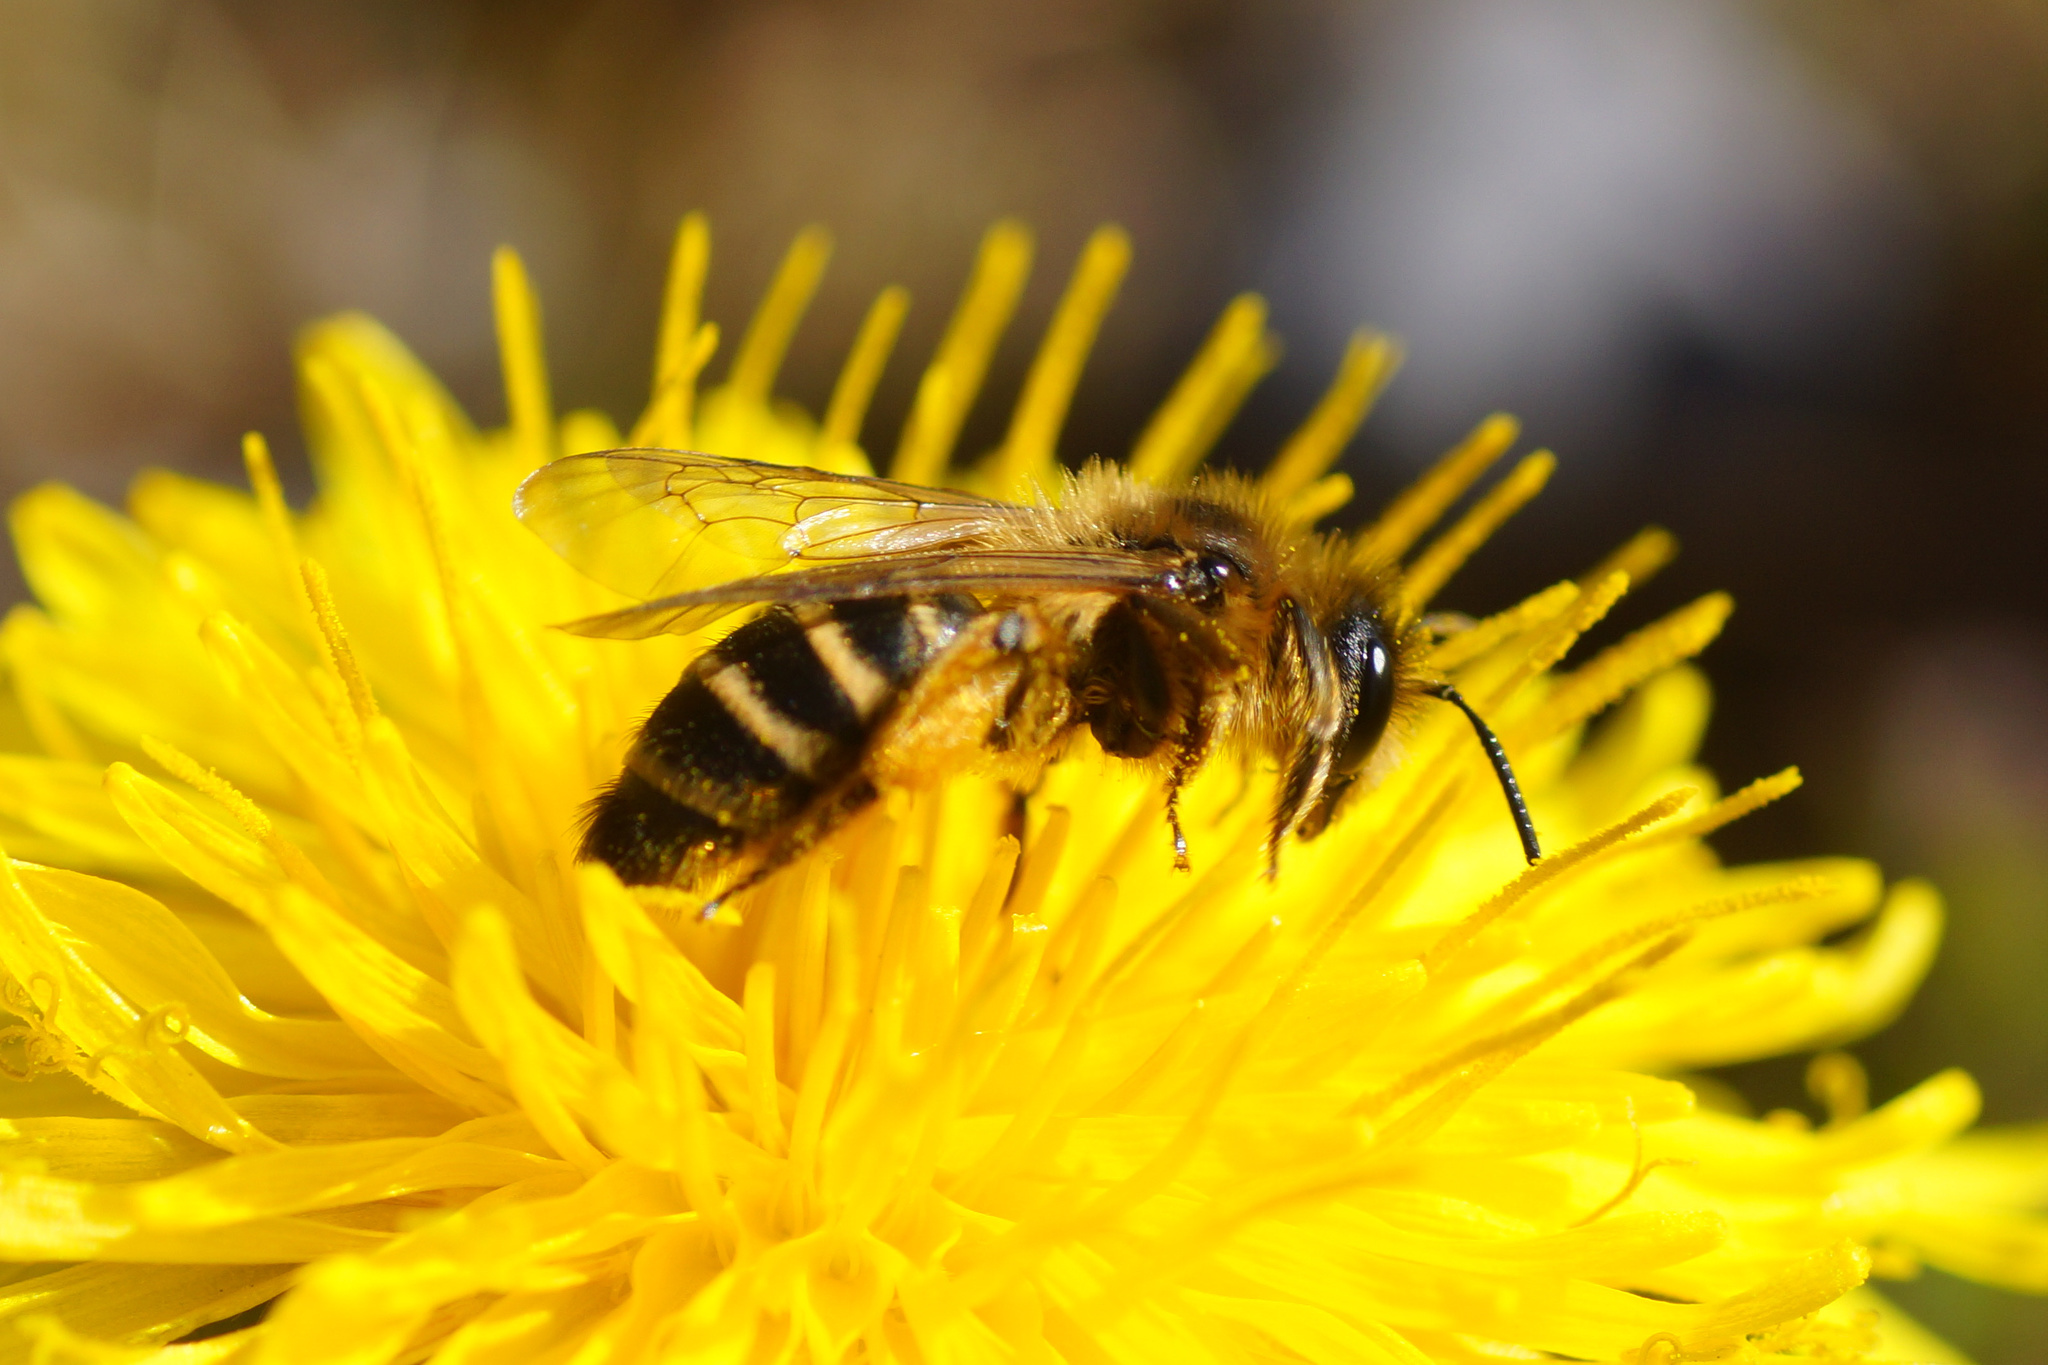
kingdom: Animalia
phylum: Arthropoda
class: Insecta
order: Hymenoptera
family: Andrenidae
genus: Andrena
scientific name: Andrena flavipes
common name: Yellow-legged mining bee
